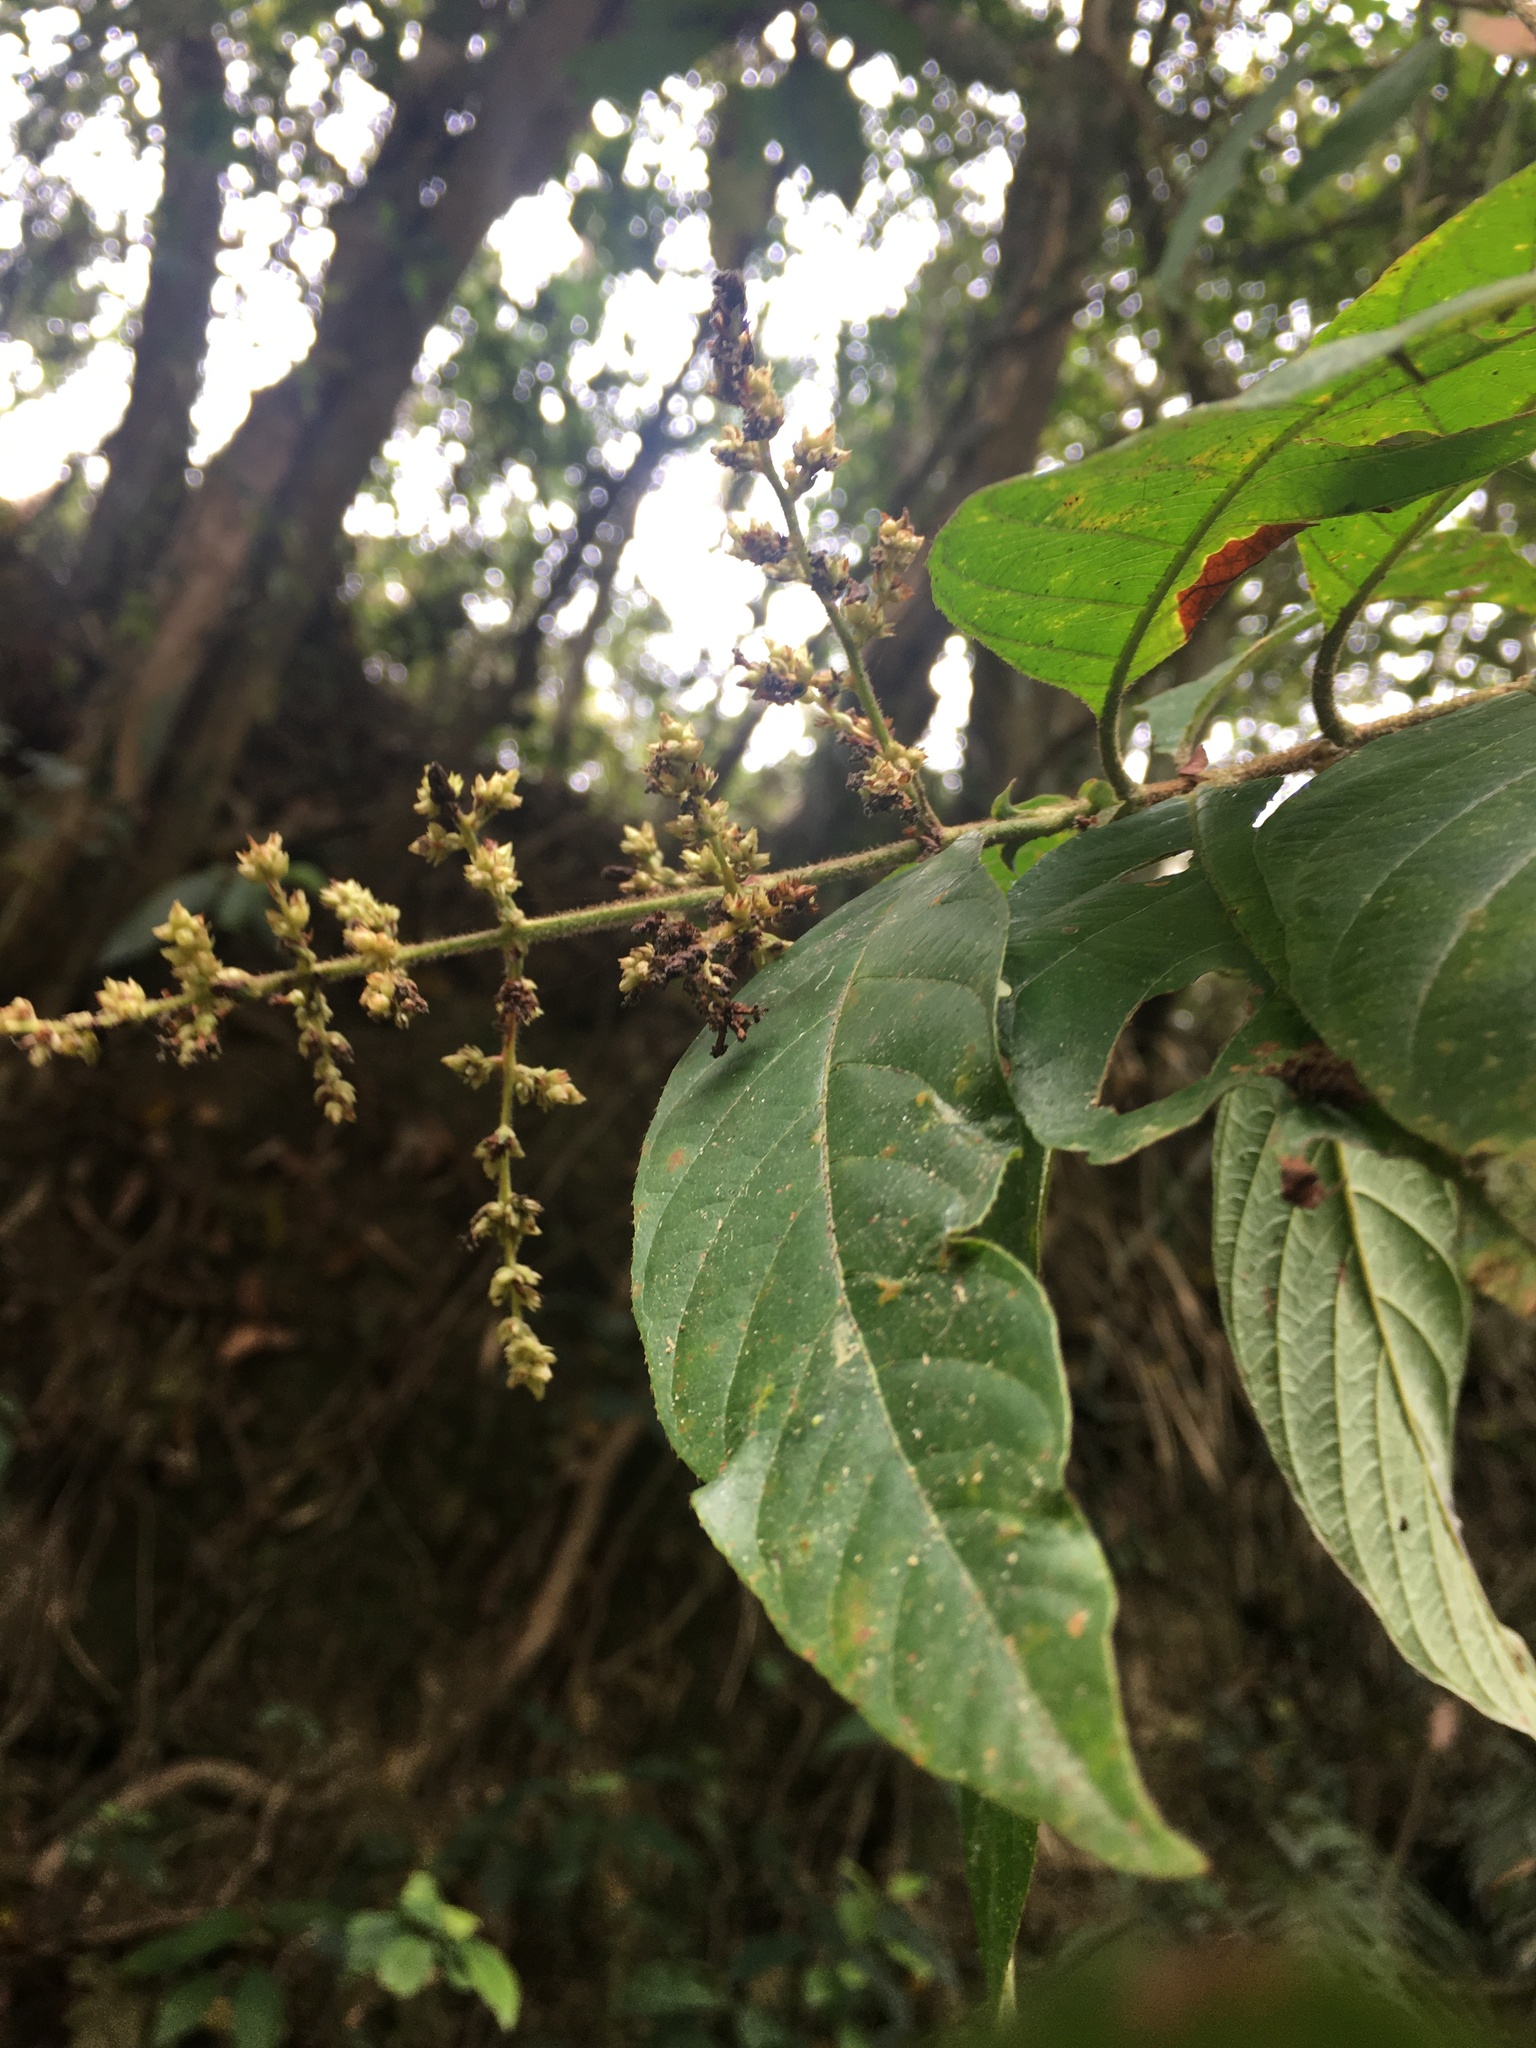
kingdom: Plantae
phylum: Tracheophyta
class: Magnoliopsida
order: Gentianales
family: Rubiaceae
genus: Wendlandia
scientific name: Wendlandia uvariifolia
